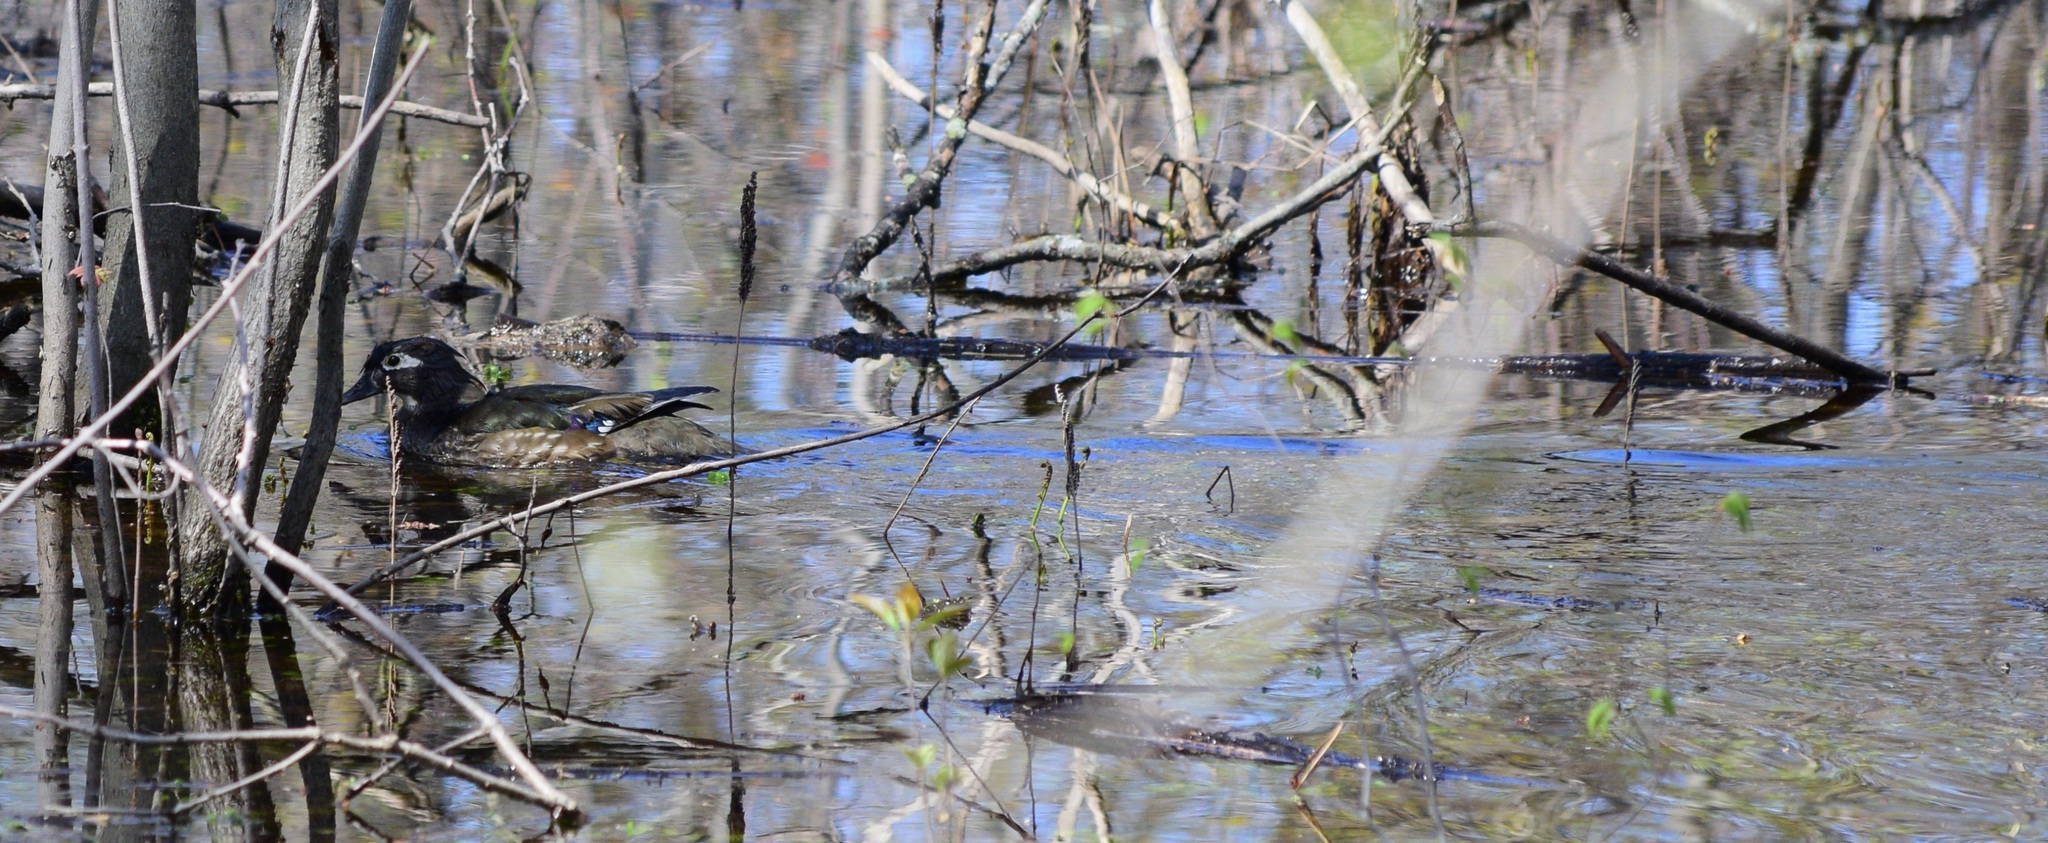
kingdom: Animalia
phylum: Chordata
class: Aves
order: Anseriformes
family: Anatidae
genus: Aix
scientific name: Aix sponsa
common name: Wood duck
